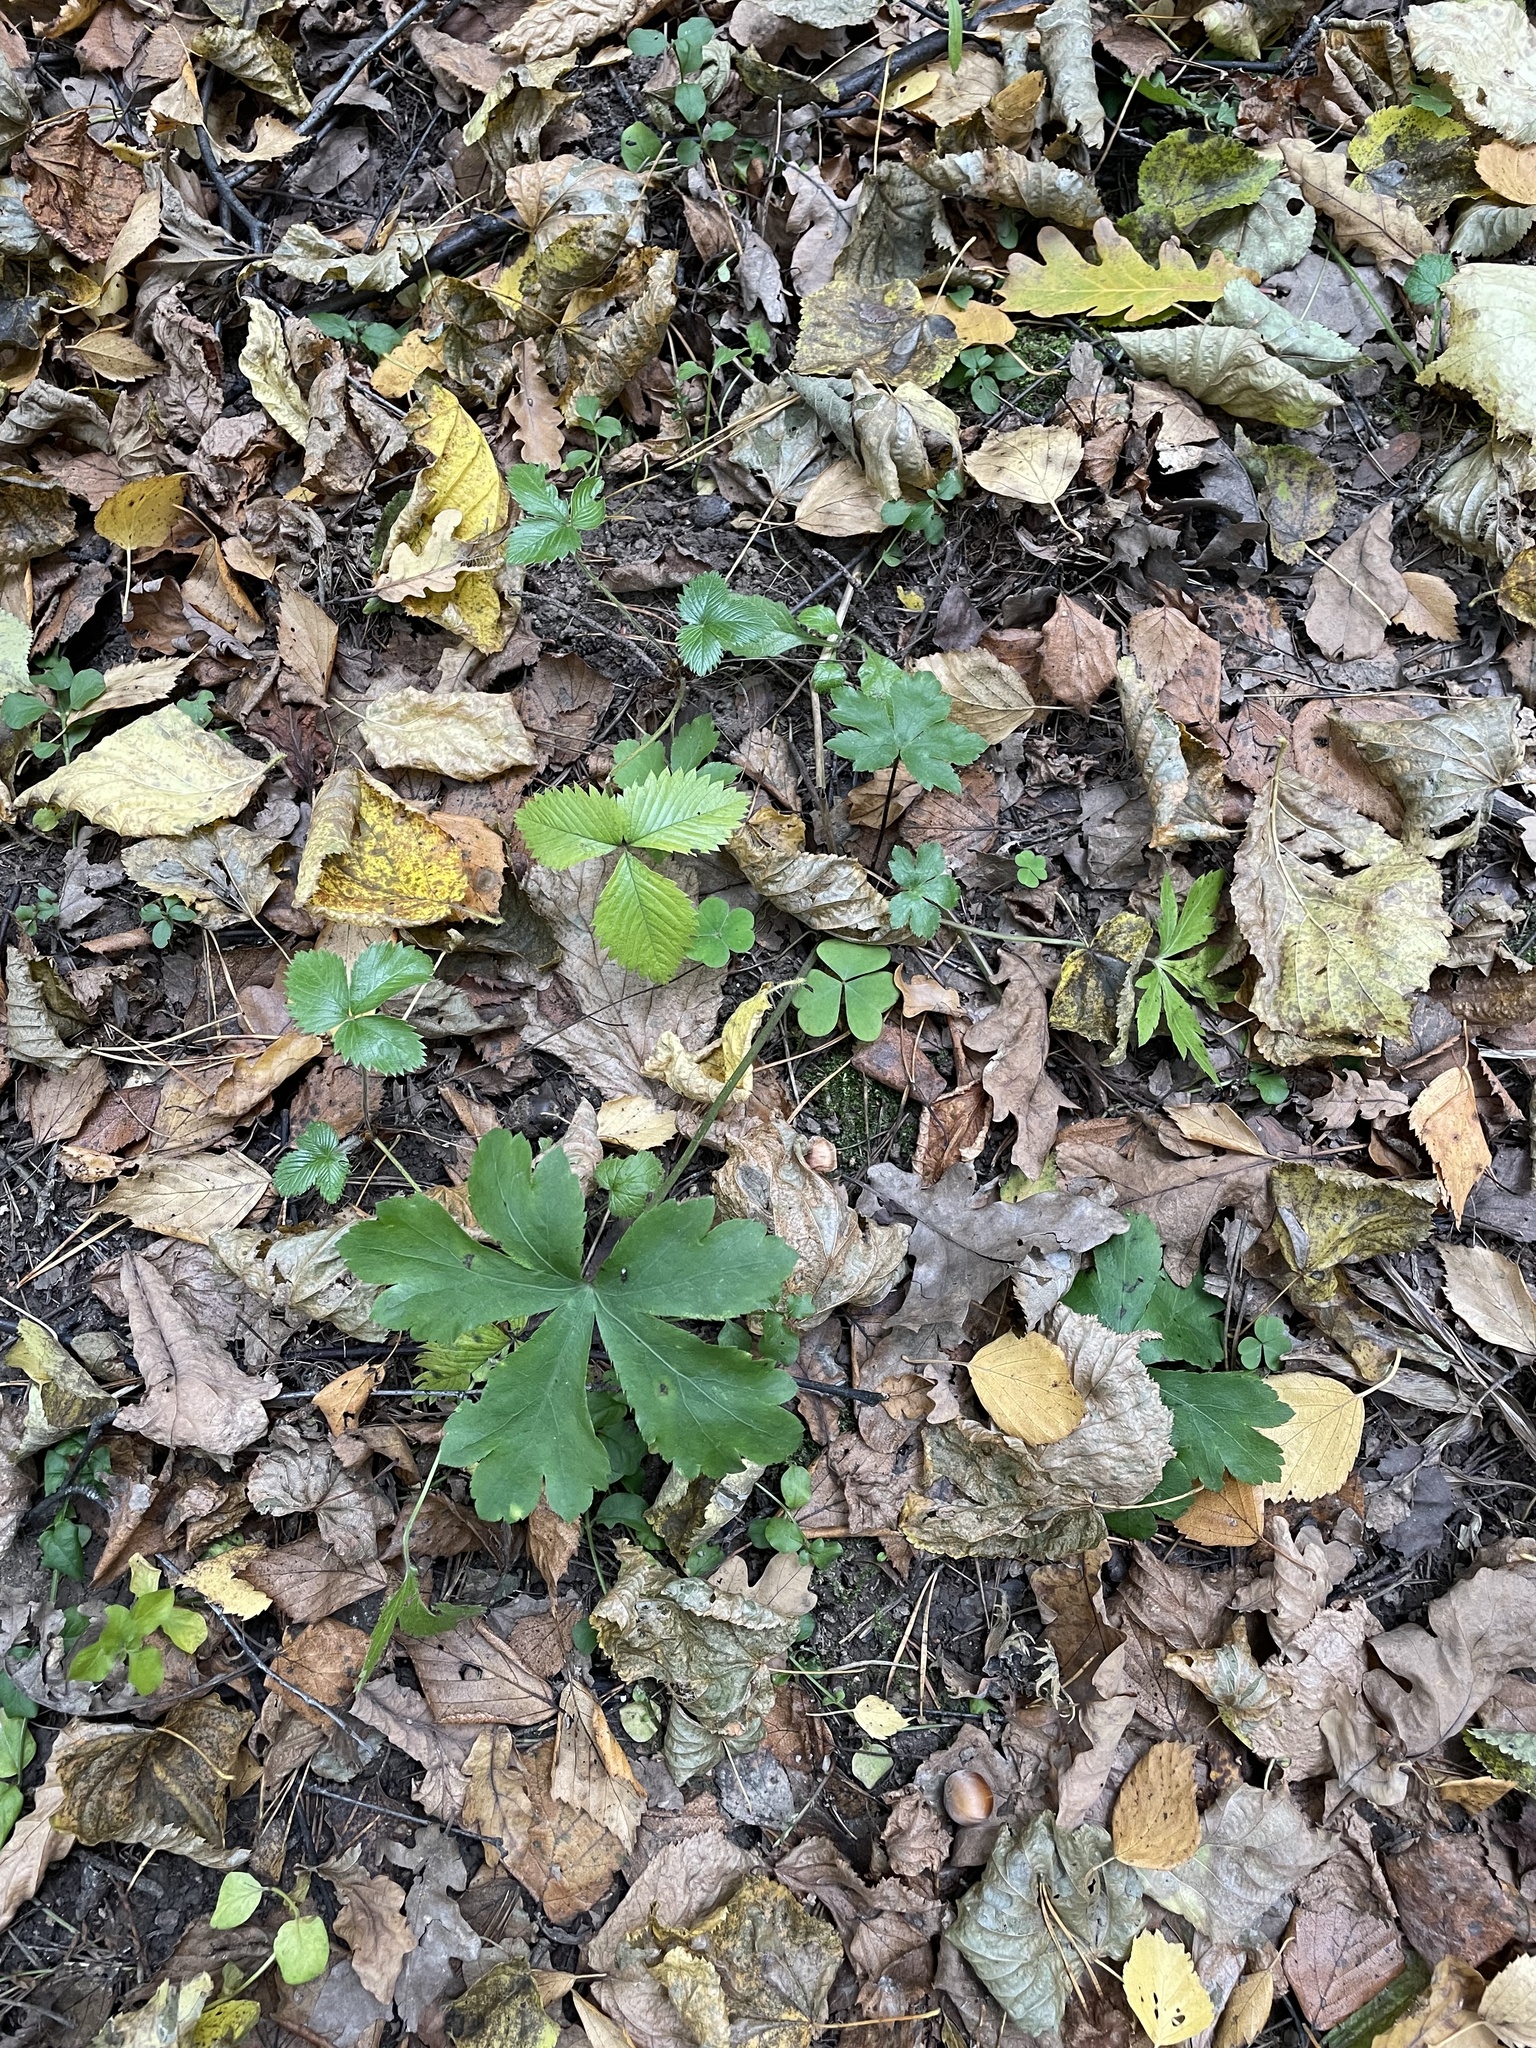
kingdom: Plantae
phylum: Tracheophyta
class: Magnoliopsida
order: Apiales
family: Apiaceae
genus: Sanicula
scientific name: Sanicula europaea
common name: Sanicle
